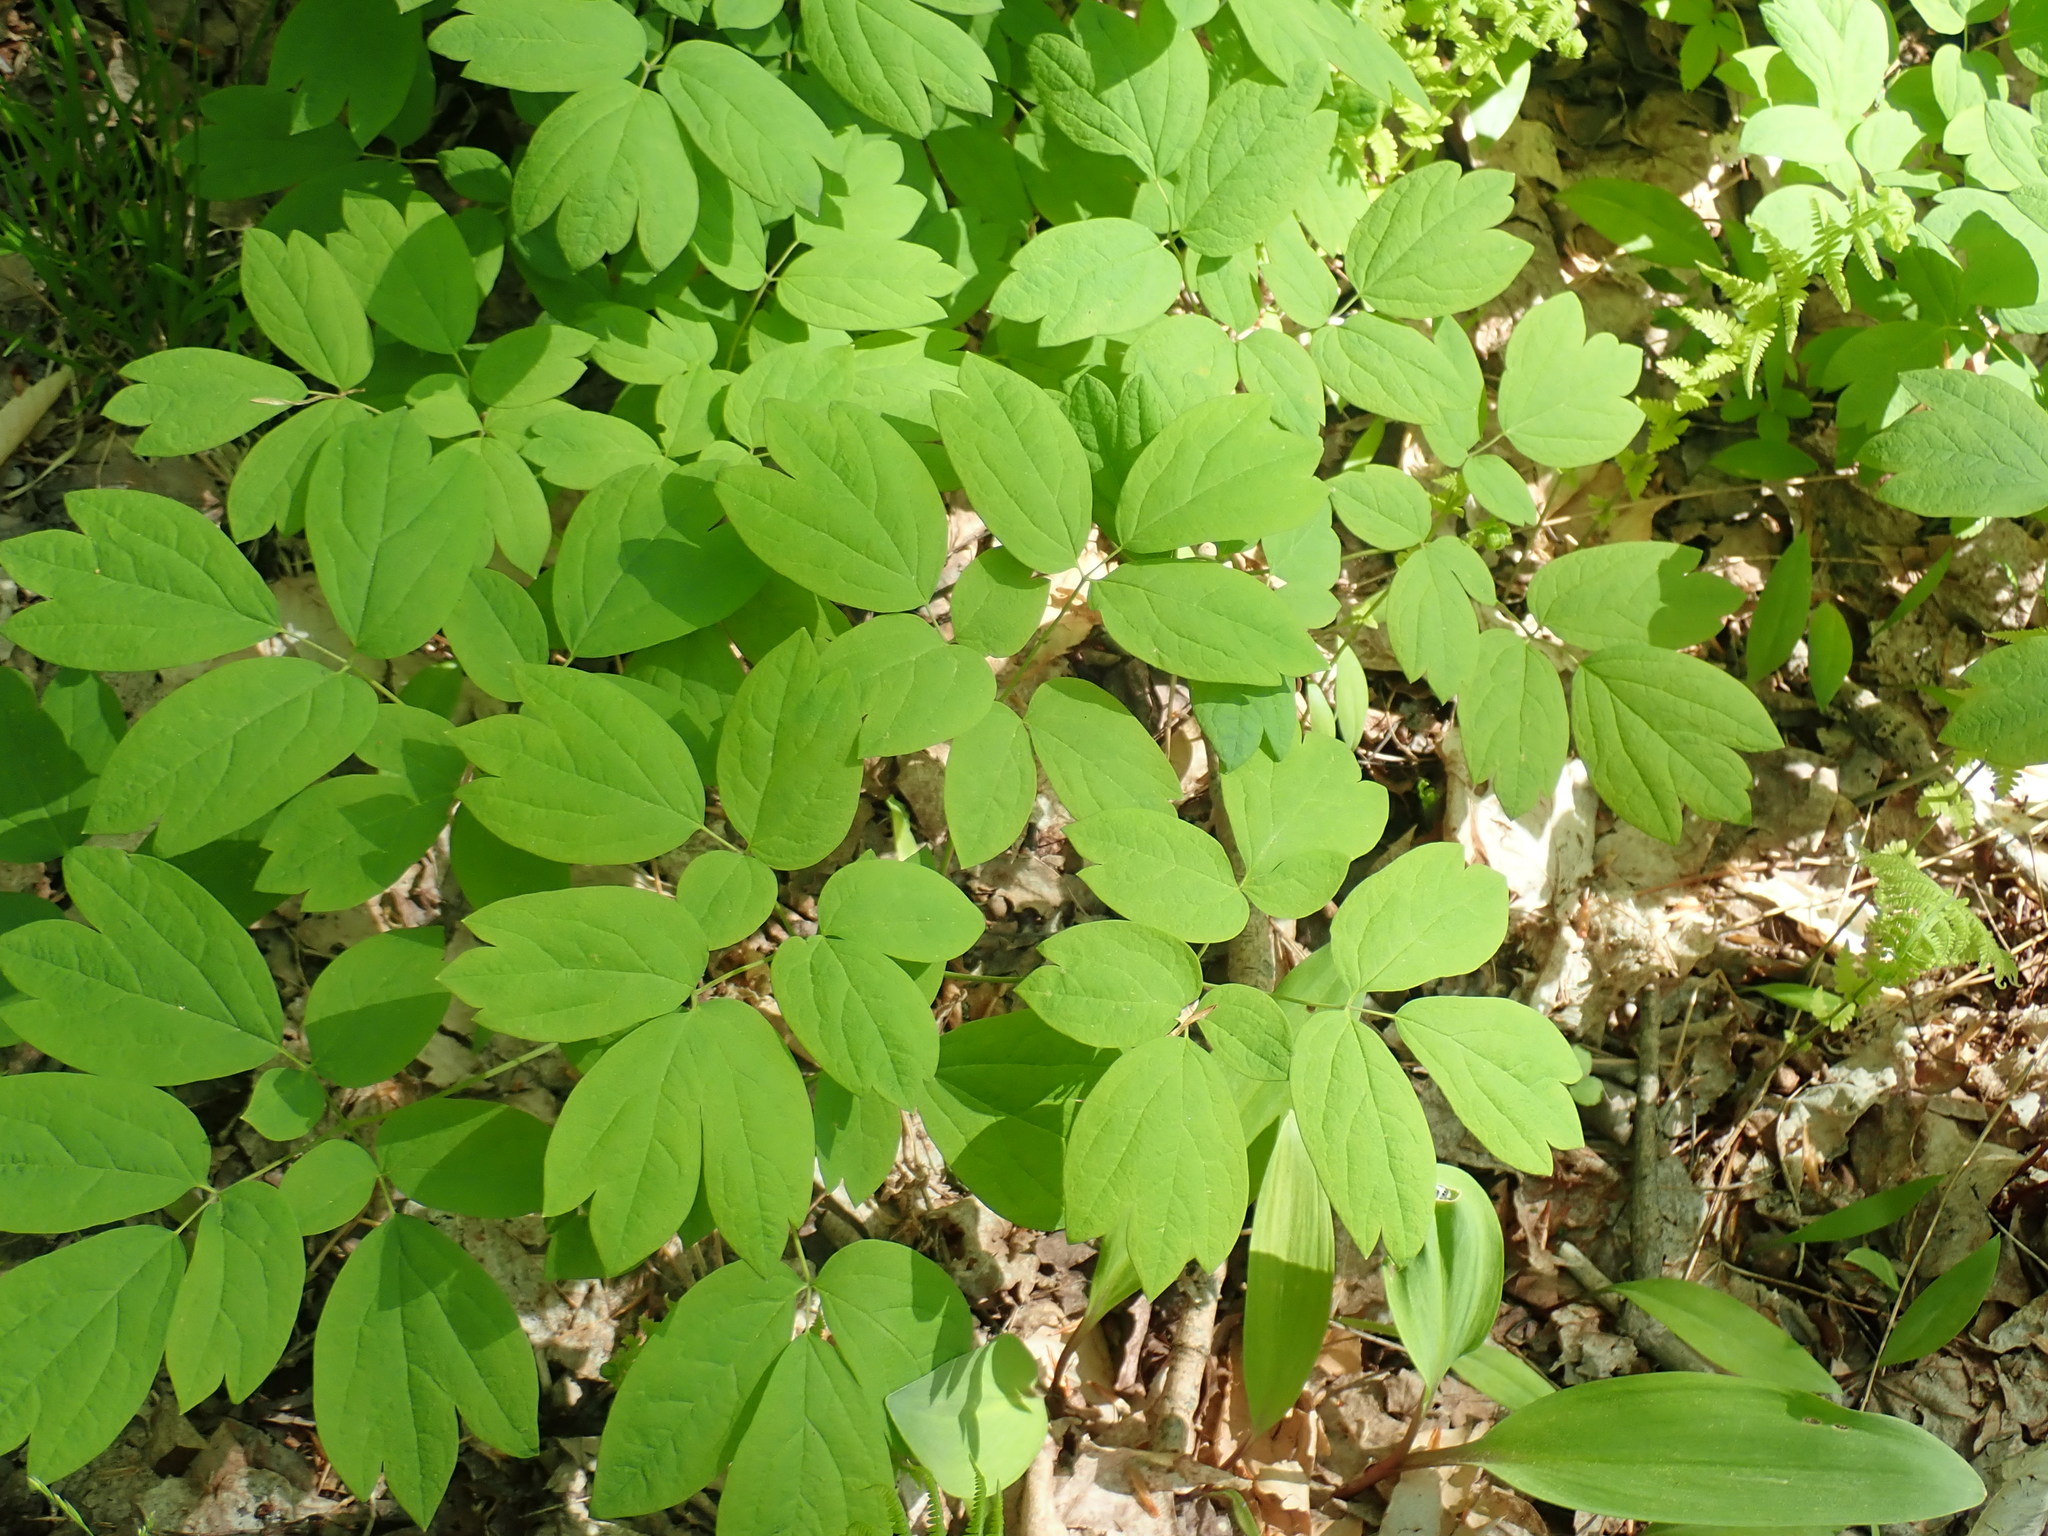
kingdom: Plantae
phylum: Tracheophyta
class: Magnoliopsida
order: Ranunculales
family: Berberidaceae
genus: Caulophyllum
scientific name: Caulophyllum
